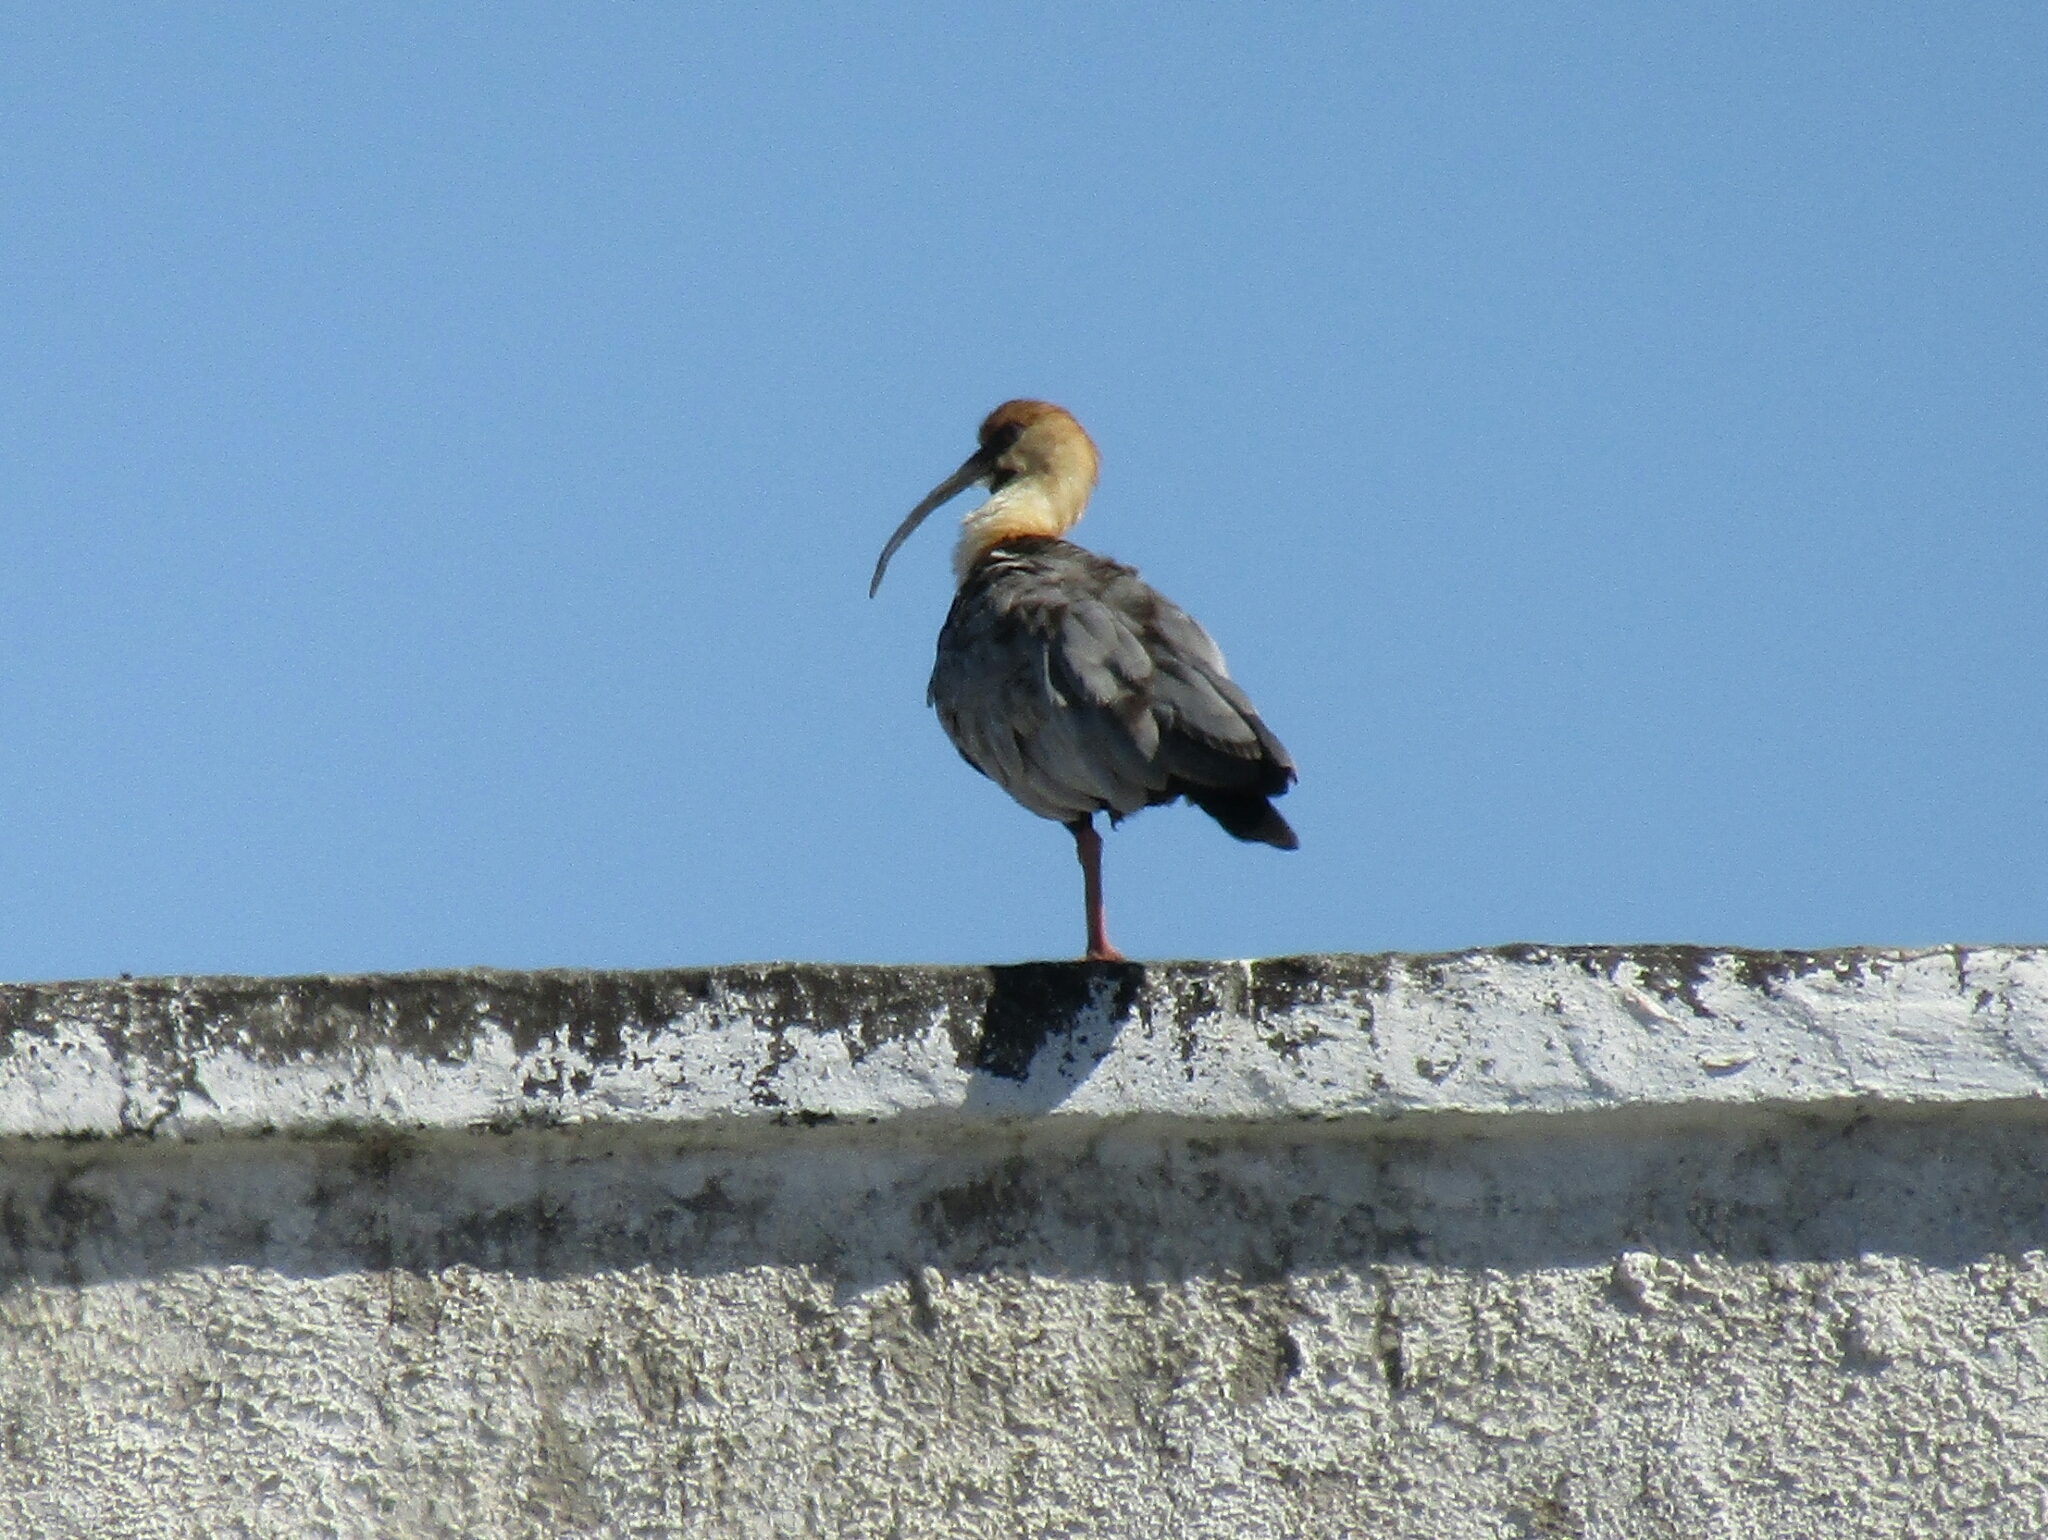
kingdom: Animalia
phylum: Chordata
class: Aves
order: Pelecaniformes
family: Threskiornithidae
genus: Theristicus
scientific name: Theristicus melanopis
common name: Black-faced ibis
